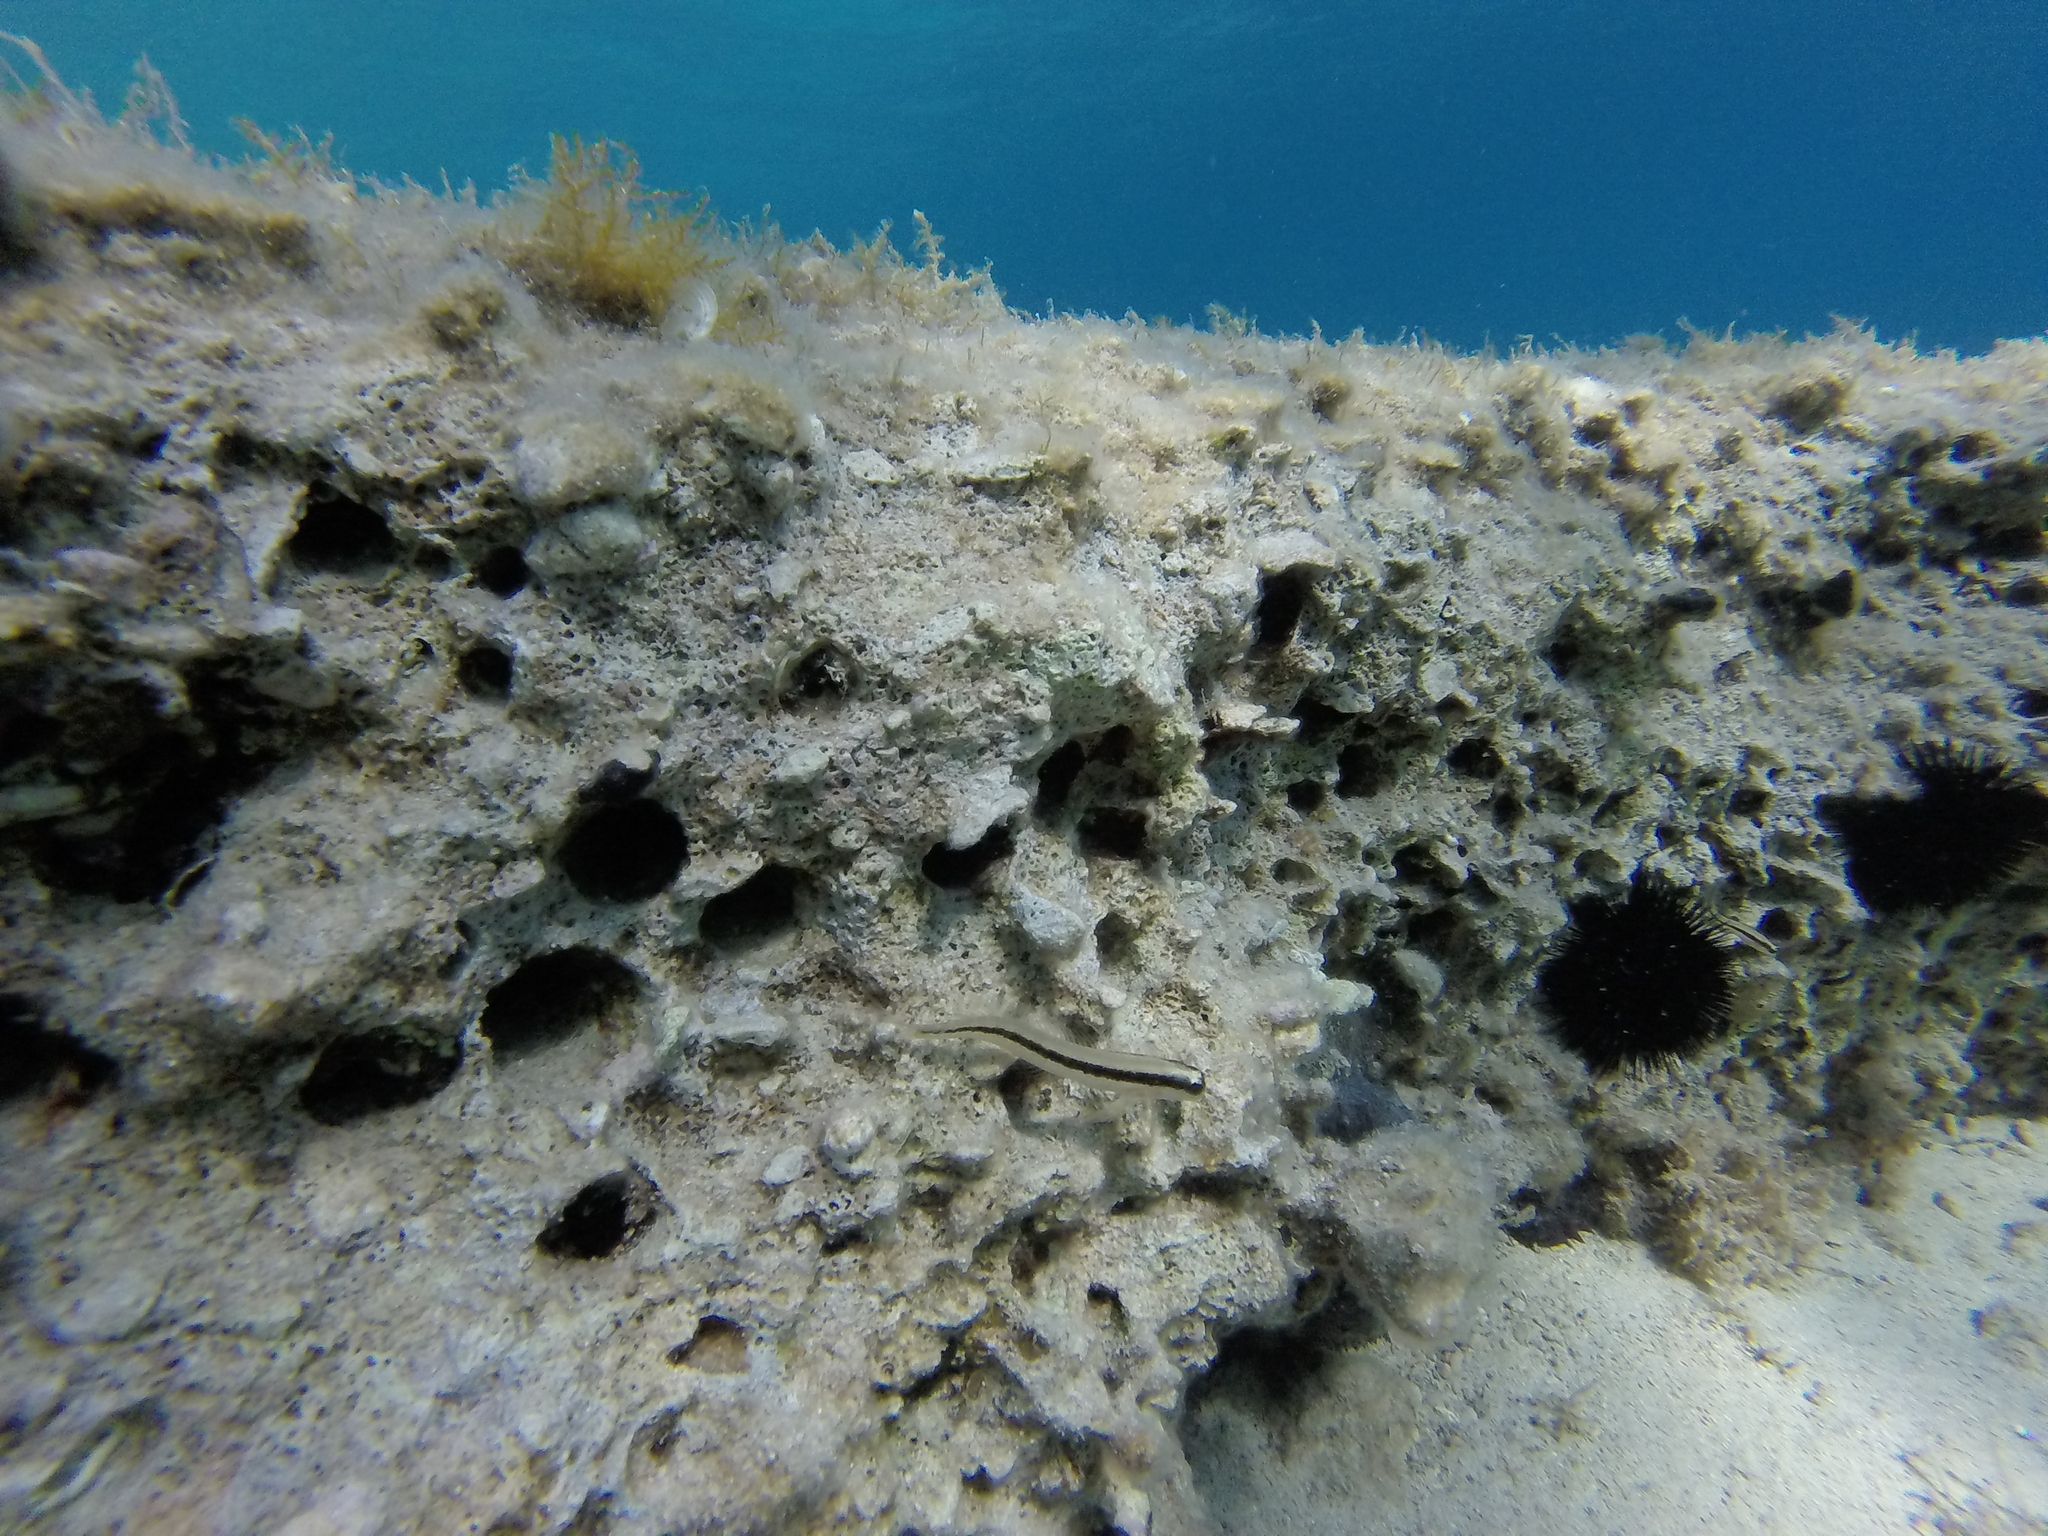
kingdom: Animalia
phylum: Chordata
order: Perciformes
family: Blenniidae
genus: Parablennius
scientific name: Parablennius rouxi
